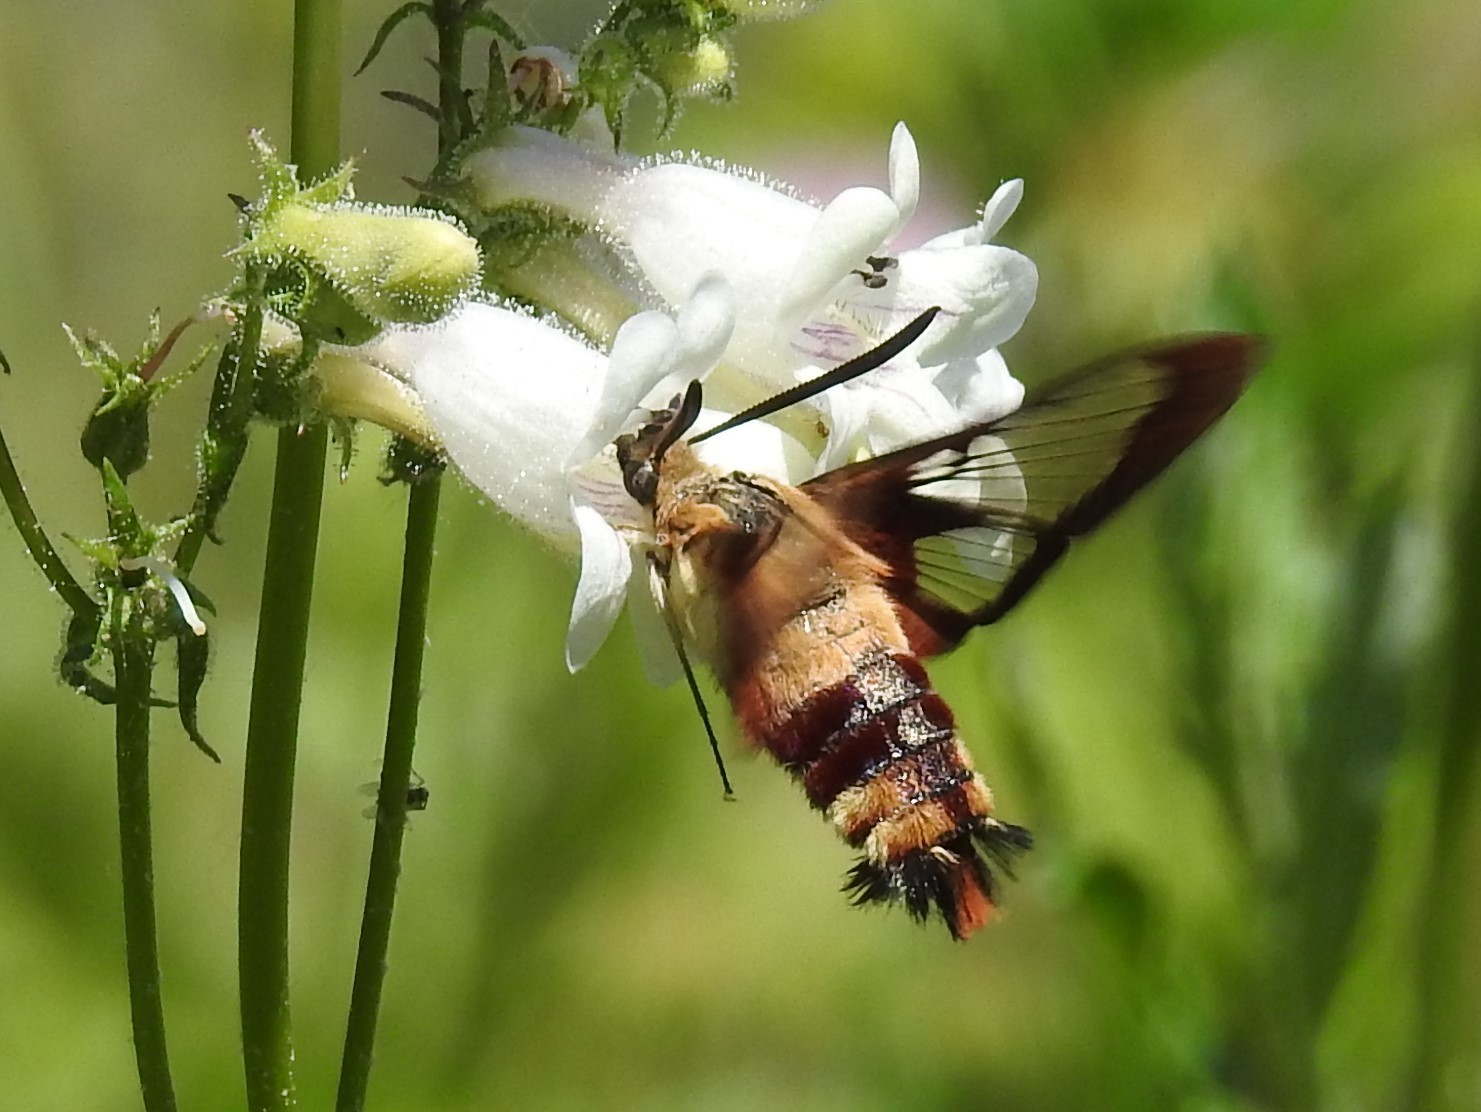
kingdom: Animalia
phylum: Arthropoda
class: Insecta
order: Lepidoptera
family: Sphingidae
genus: Hemaris
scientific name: Hemaris thysbe
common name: Common clear-wing
